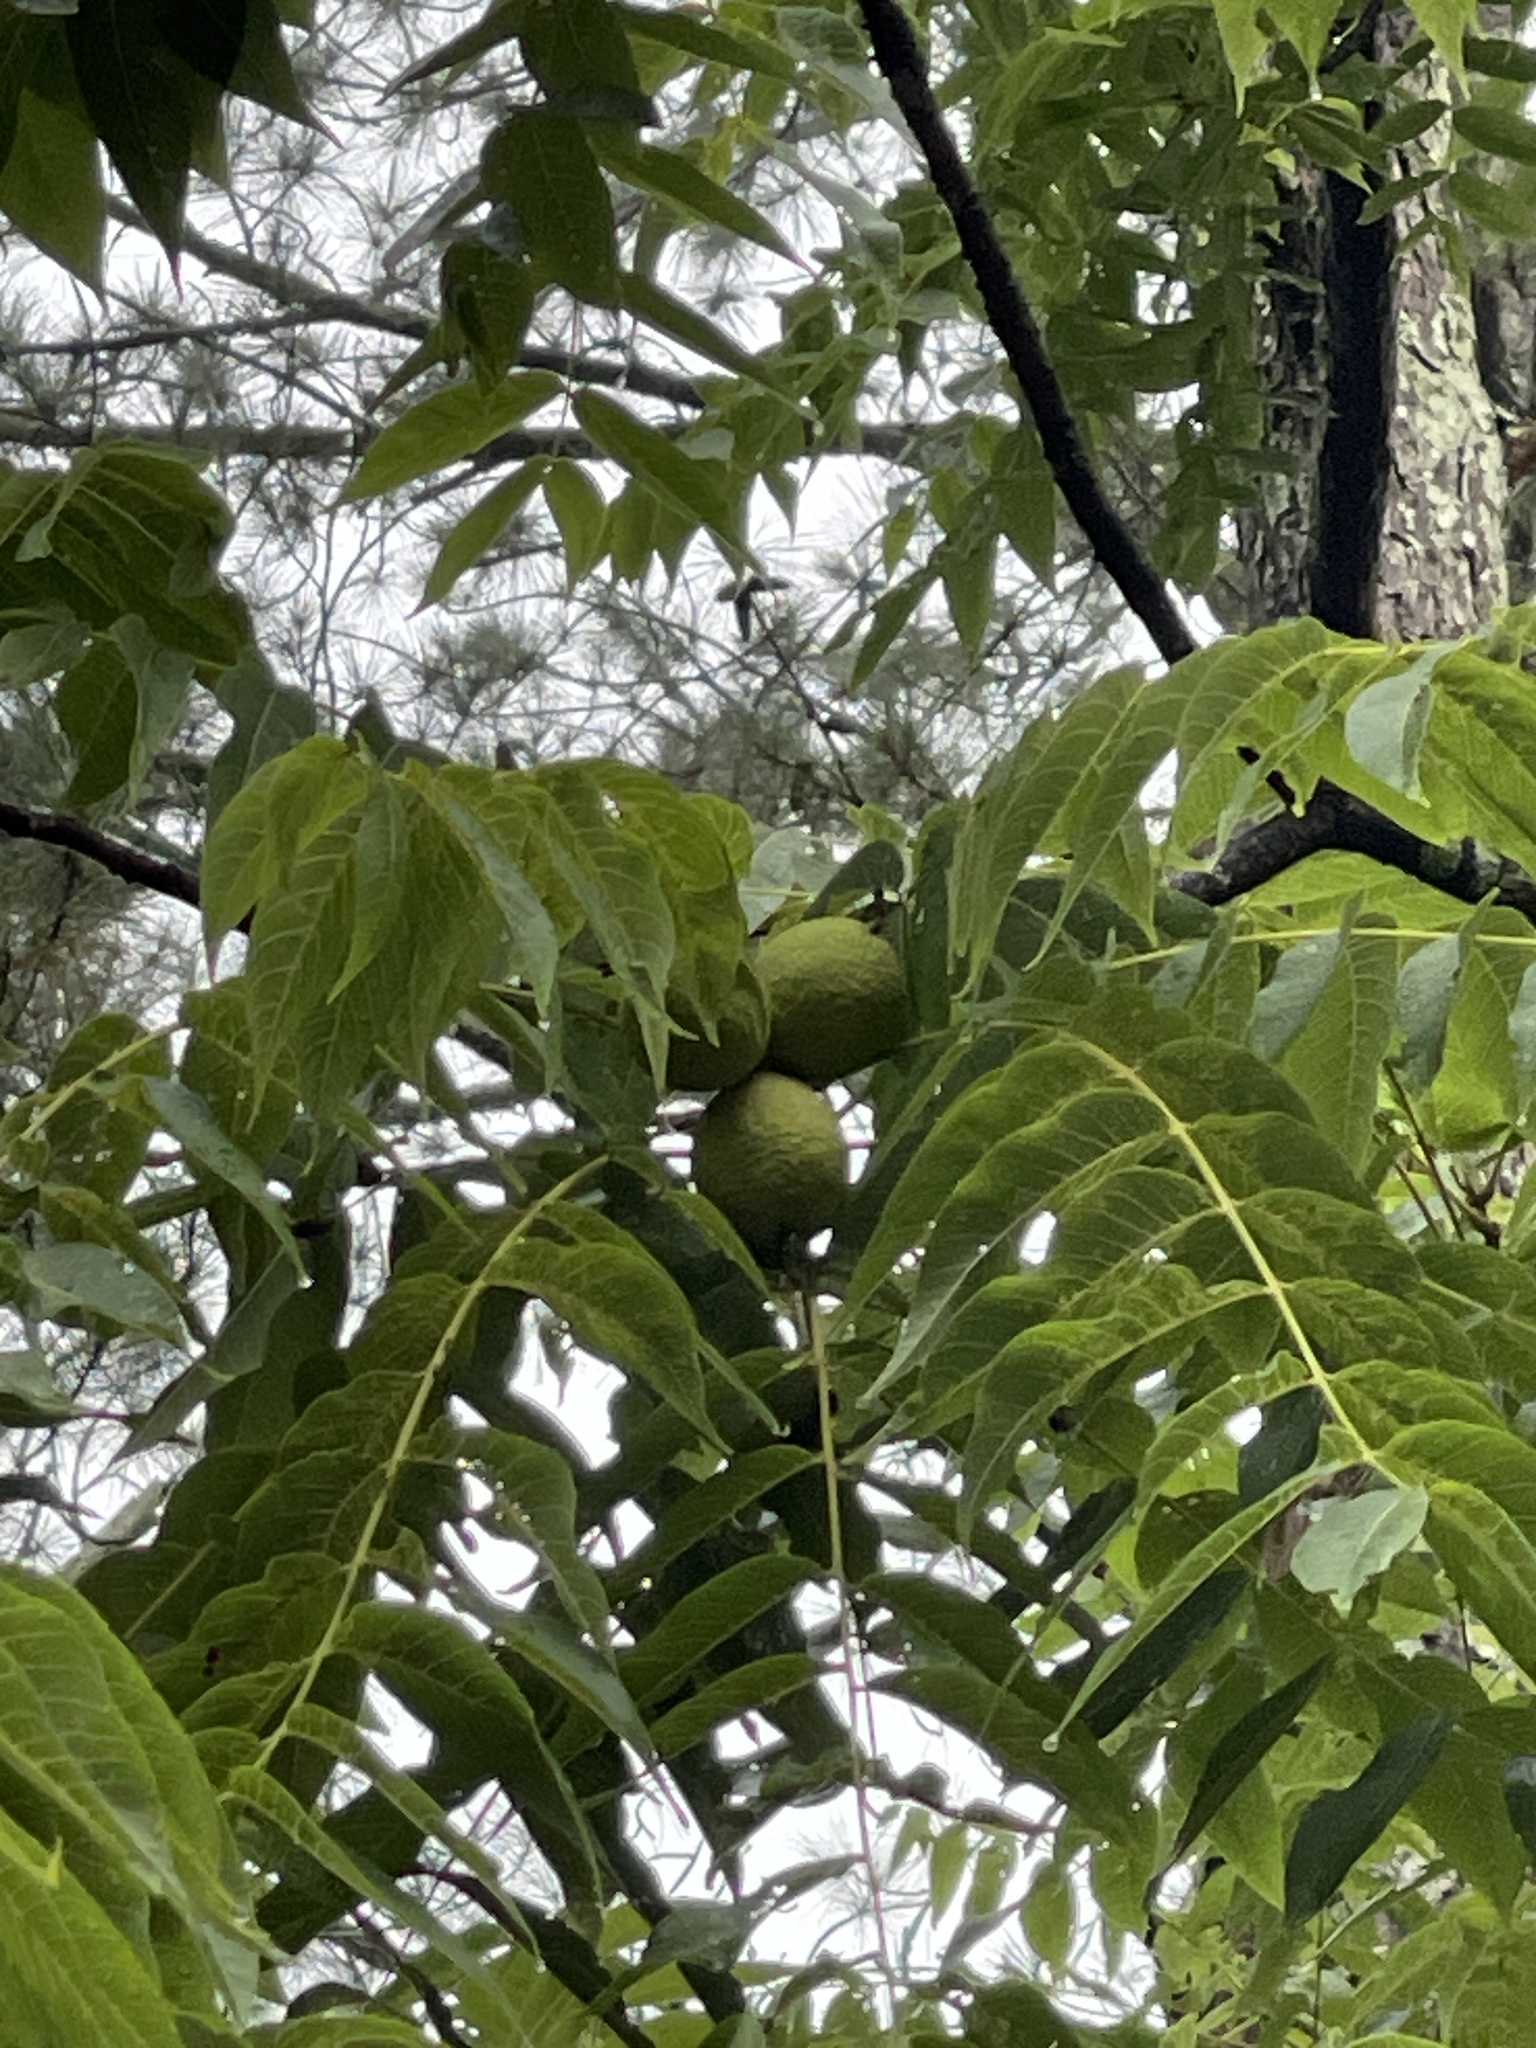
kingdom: Plantae
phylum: Tracheophyta
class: Magnoliopsida
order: Fagales
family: Juglandaceae
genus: Juglans
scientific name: Juglans nigra
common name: Black walnut
